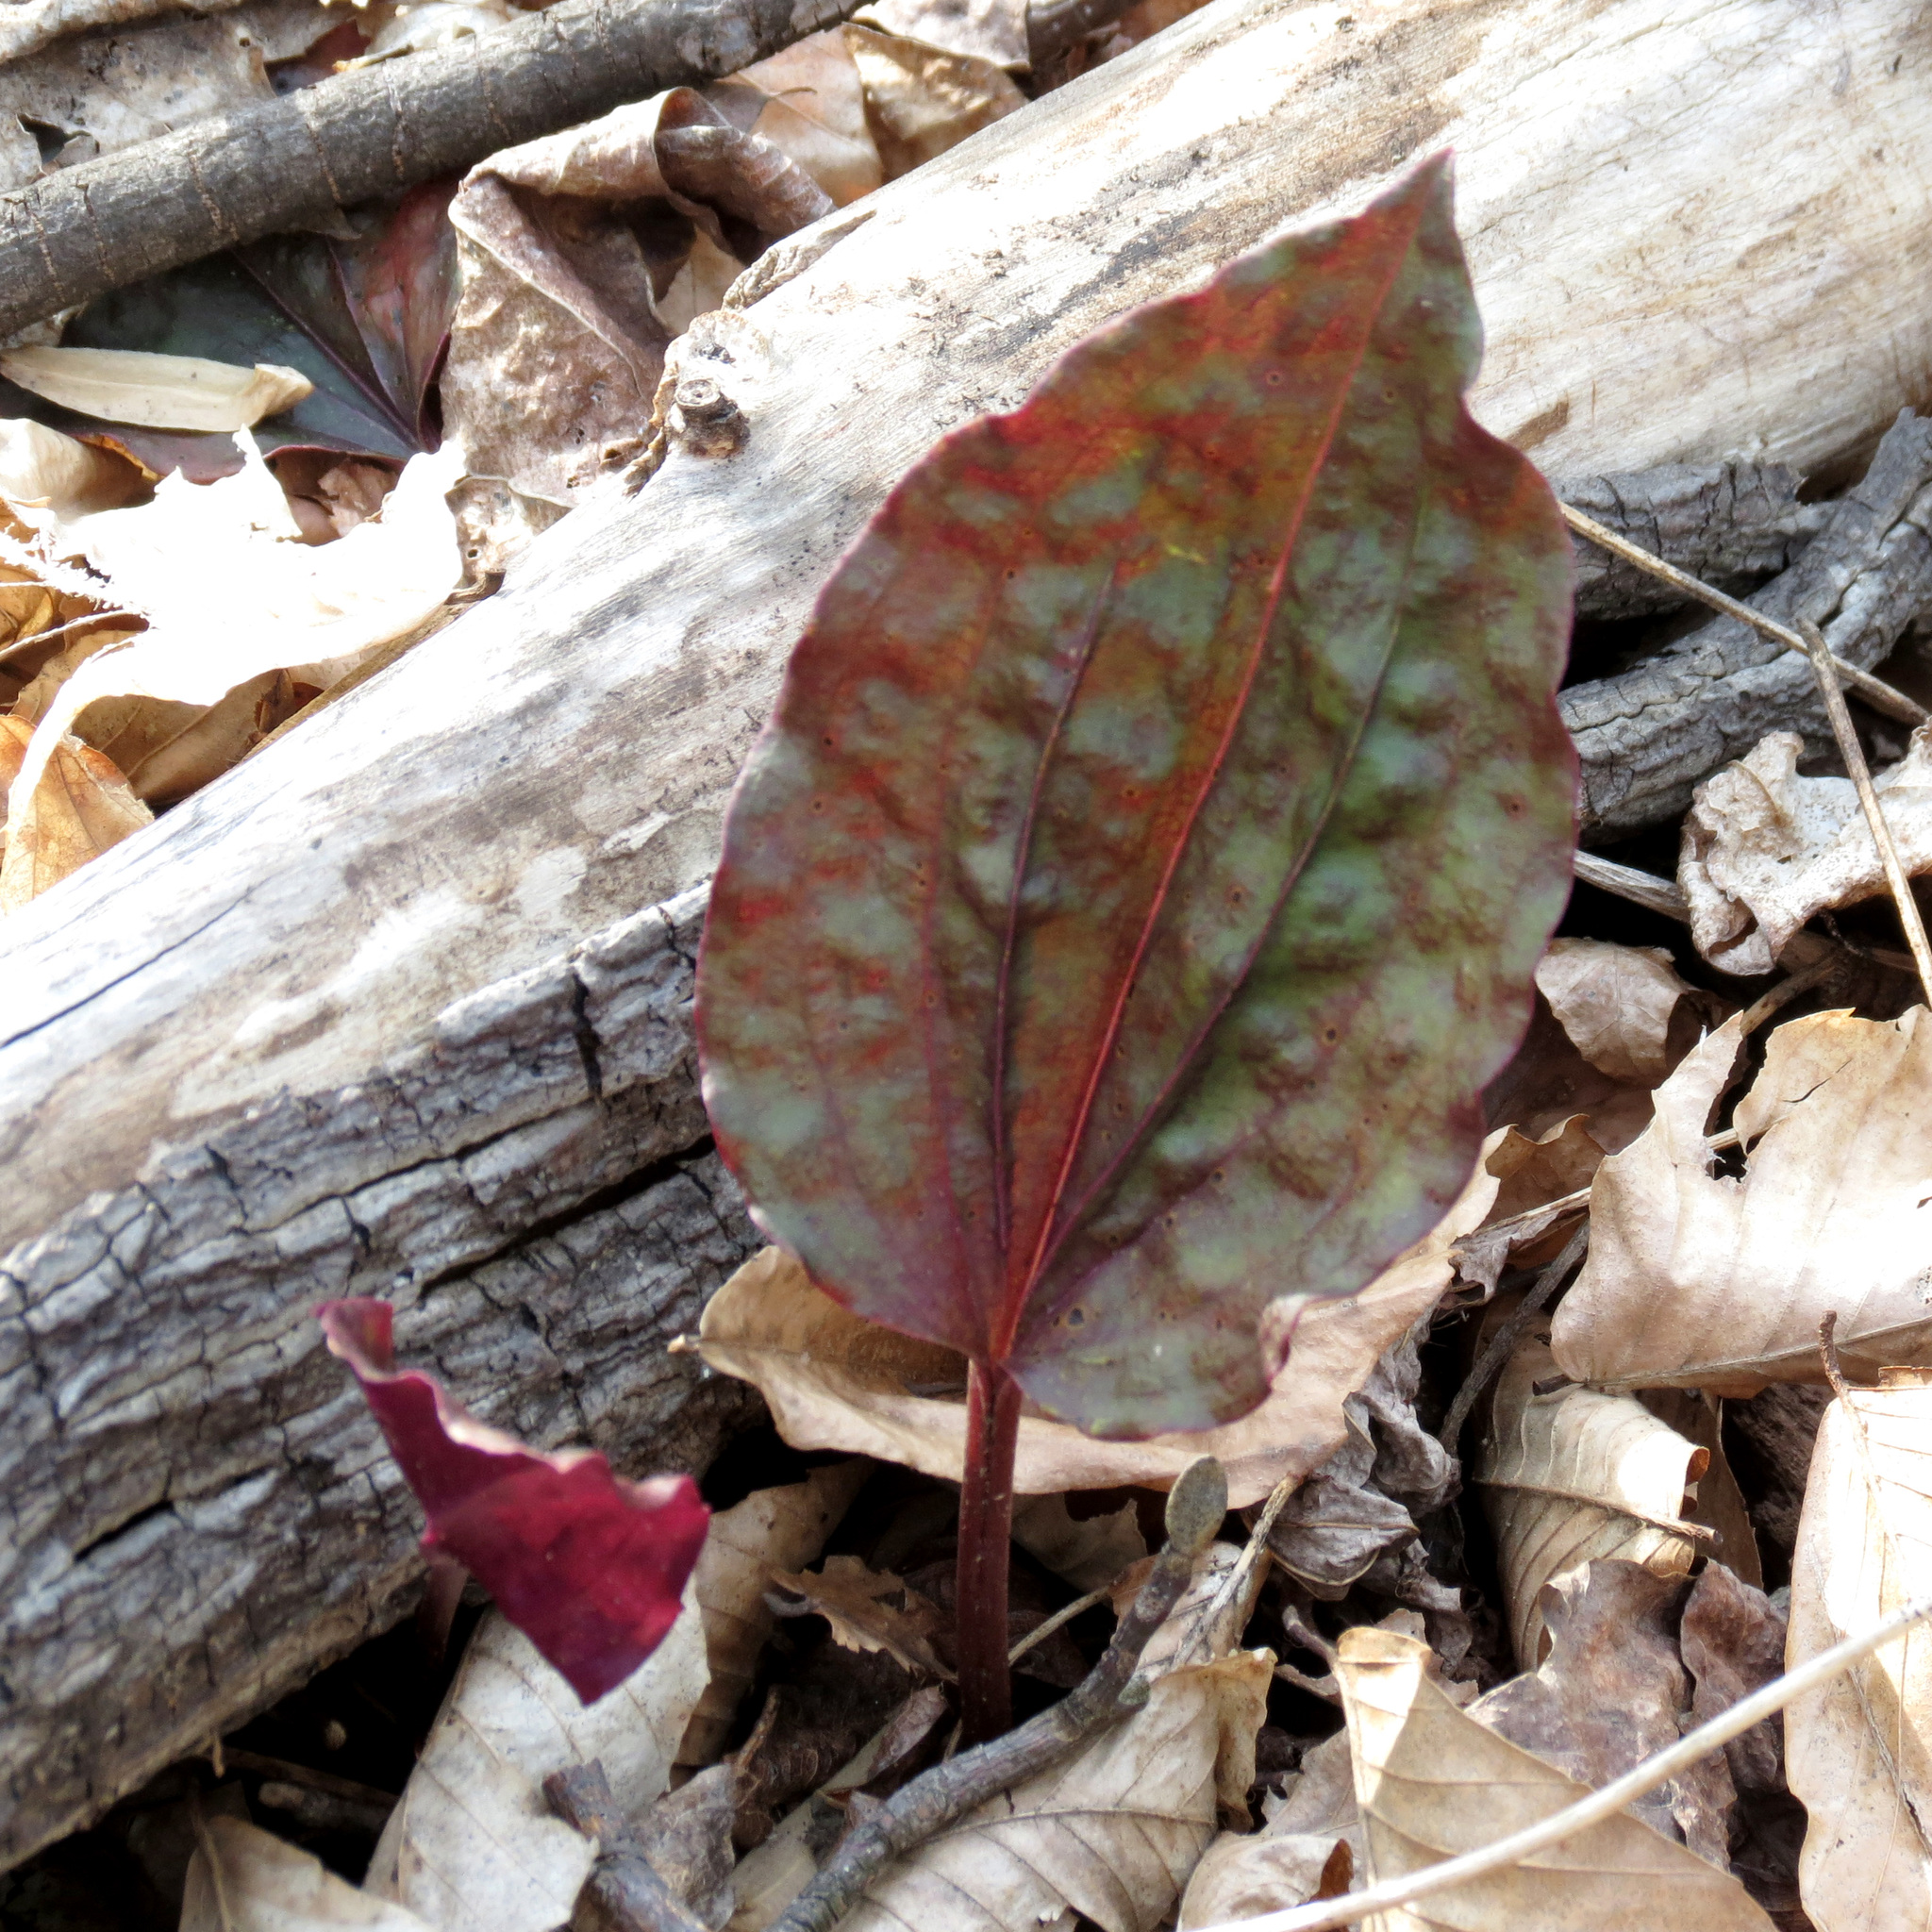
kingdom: Plantae
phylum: Tracheophyta
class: Liliopsida
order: Asparagales
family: Orchidaceae
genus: Tipularia
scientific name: Tipularia discolor
